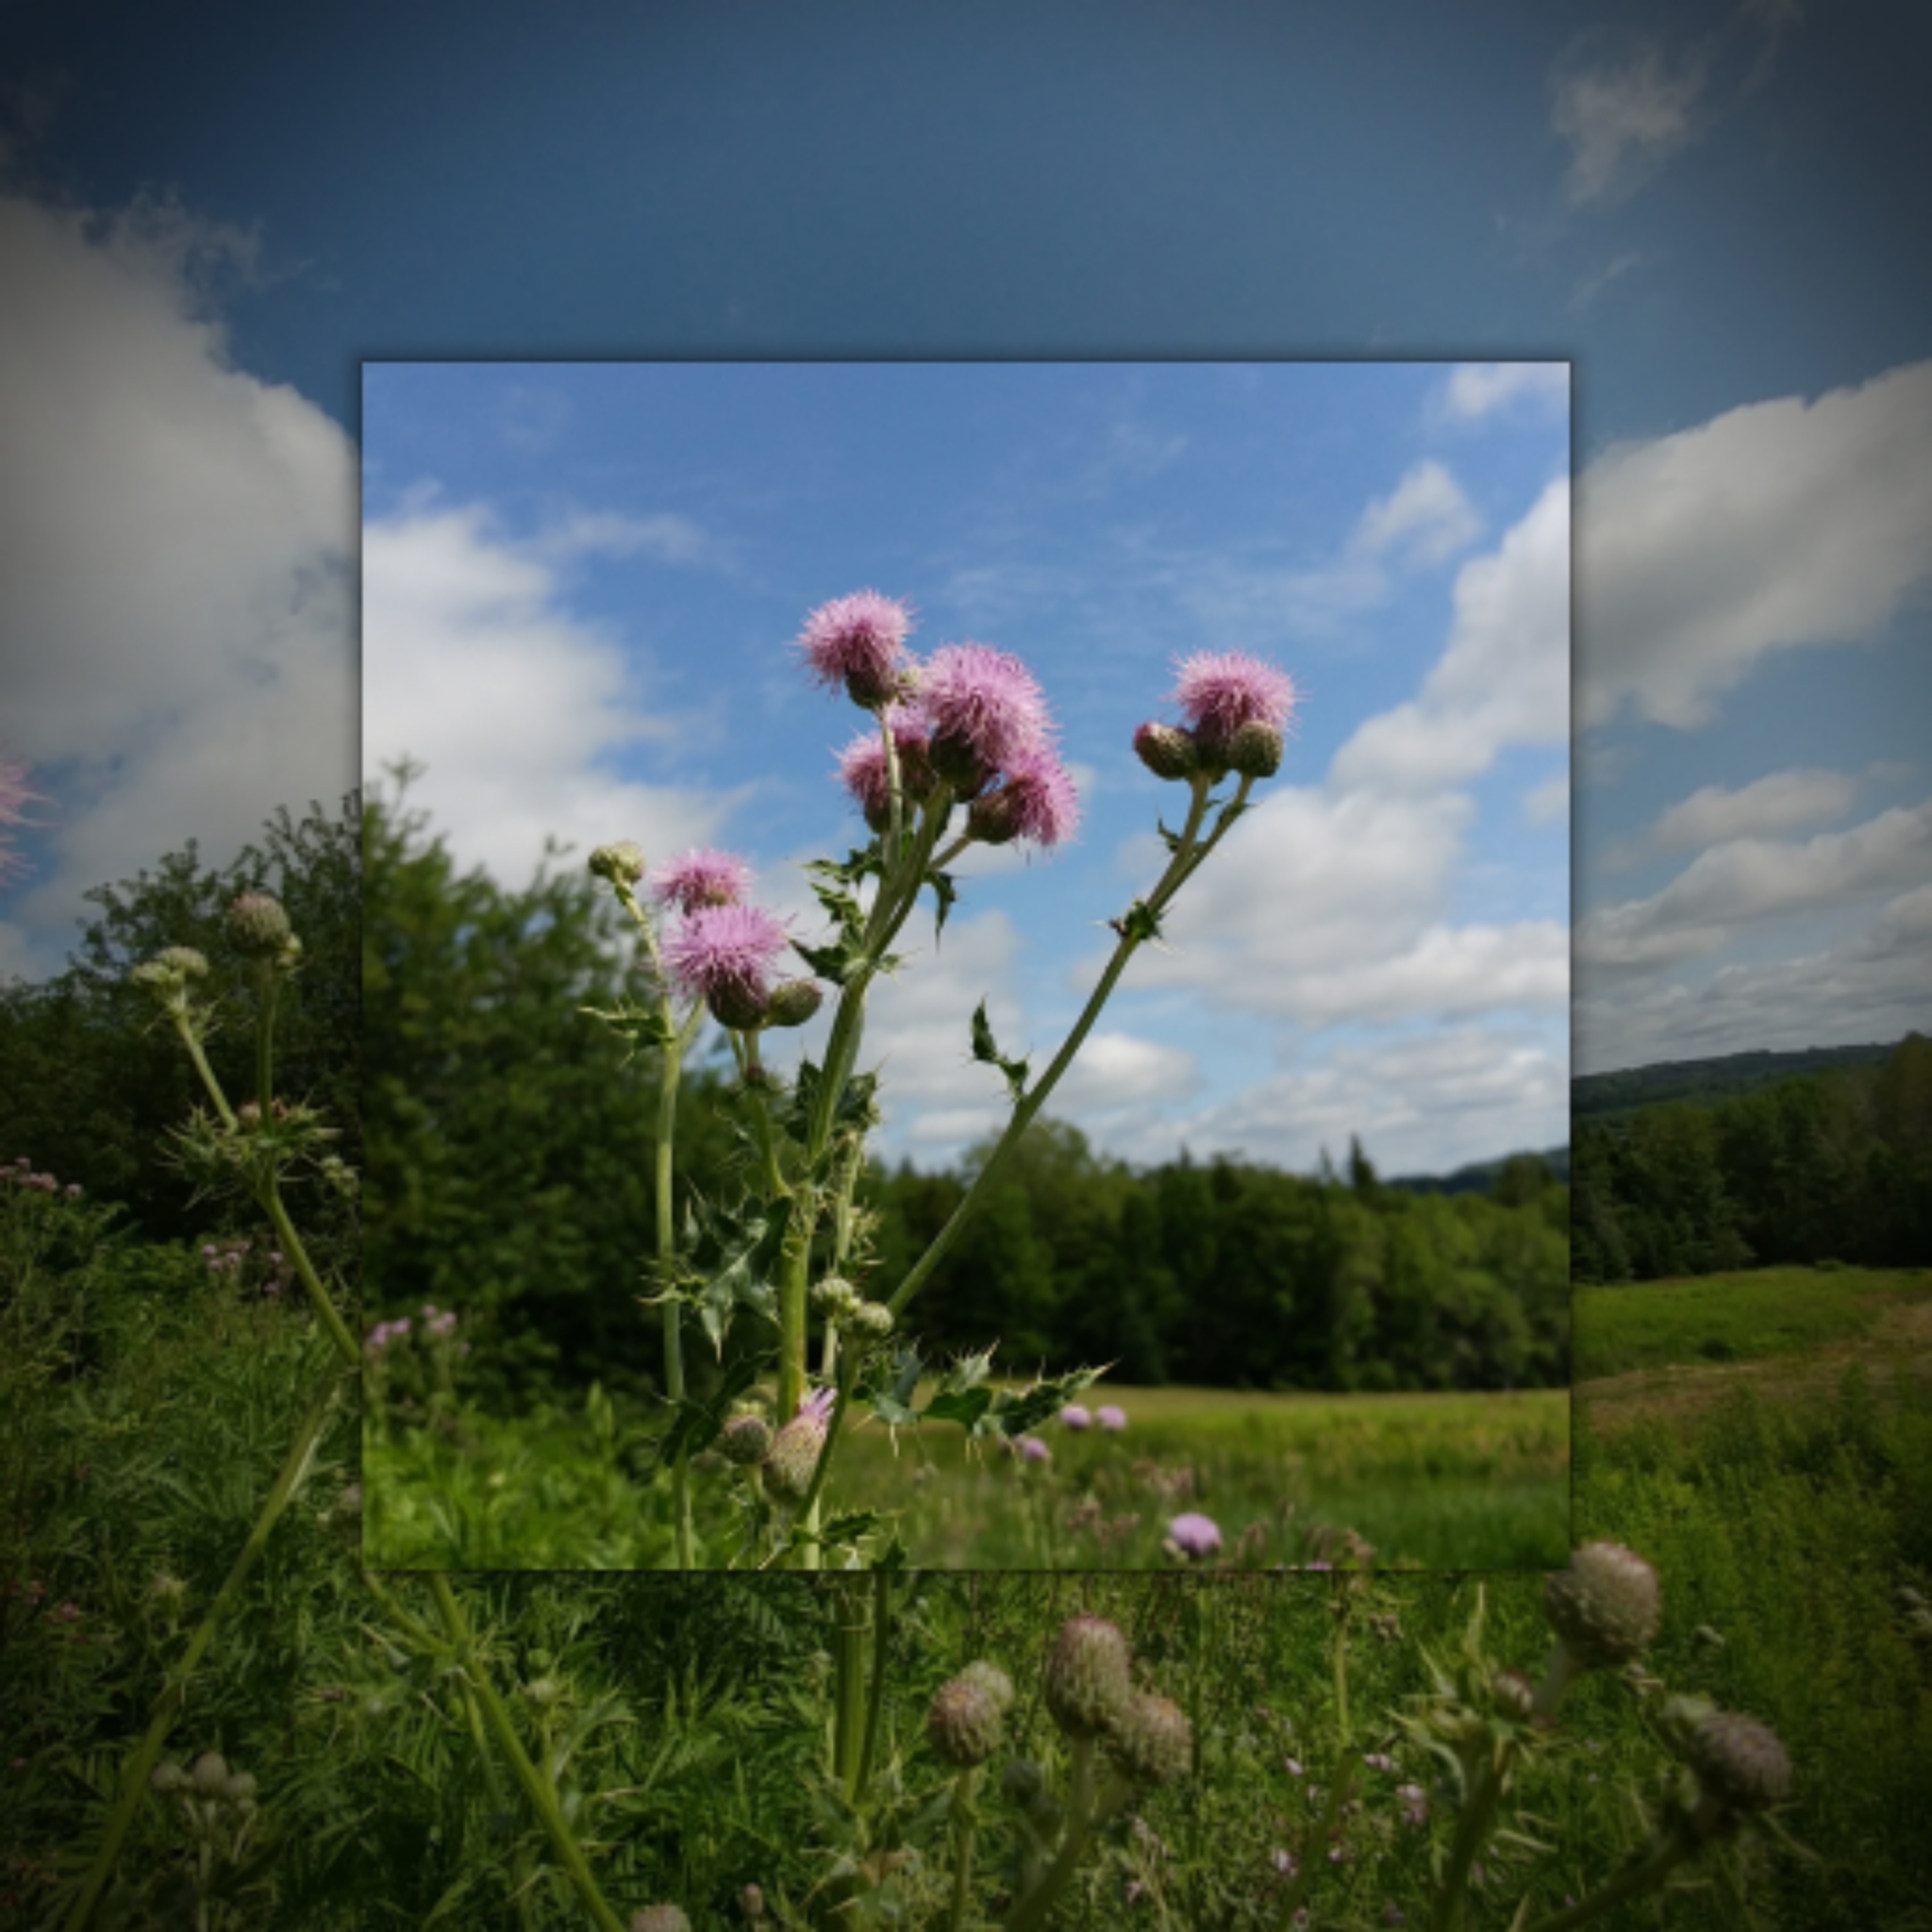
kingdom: Plantae
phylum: Tracheophyta
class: Magnoliopsida
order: Asterales
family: Asteraceae
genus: Cirsium
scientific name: Cirsium arvense
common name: Creeping thistle
